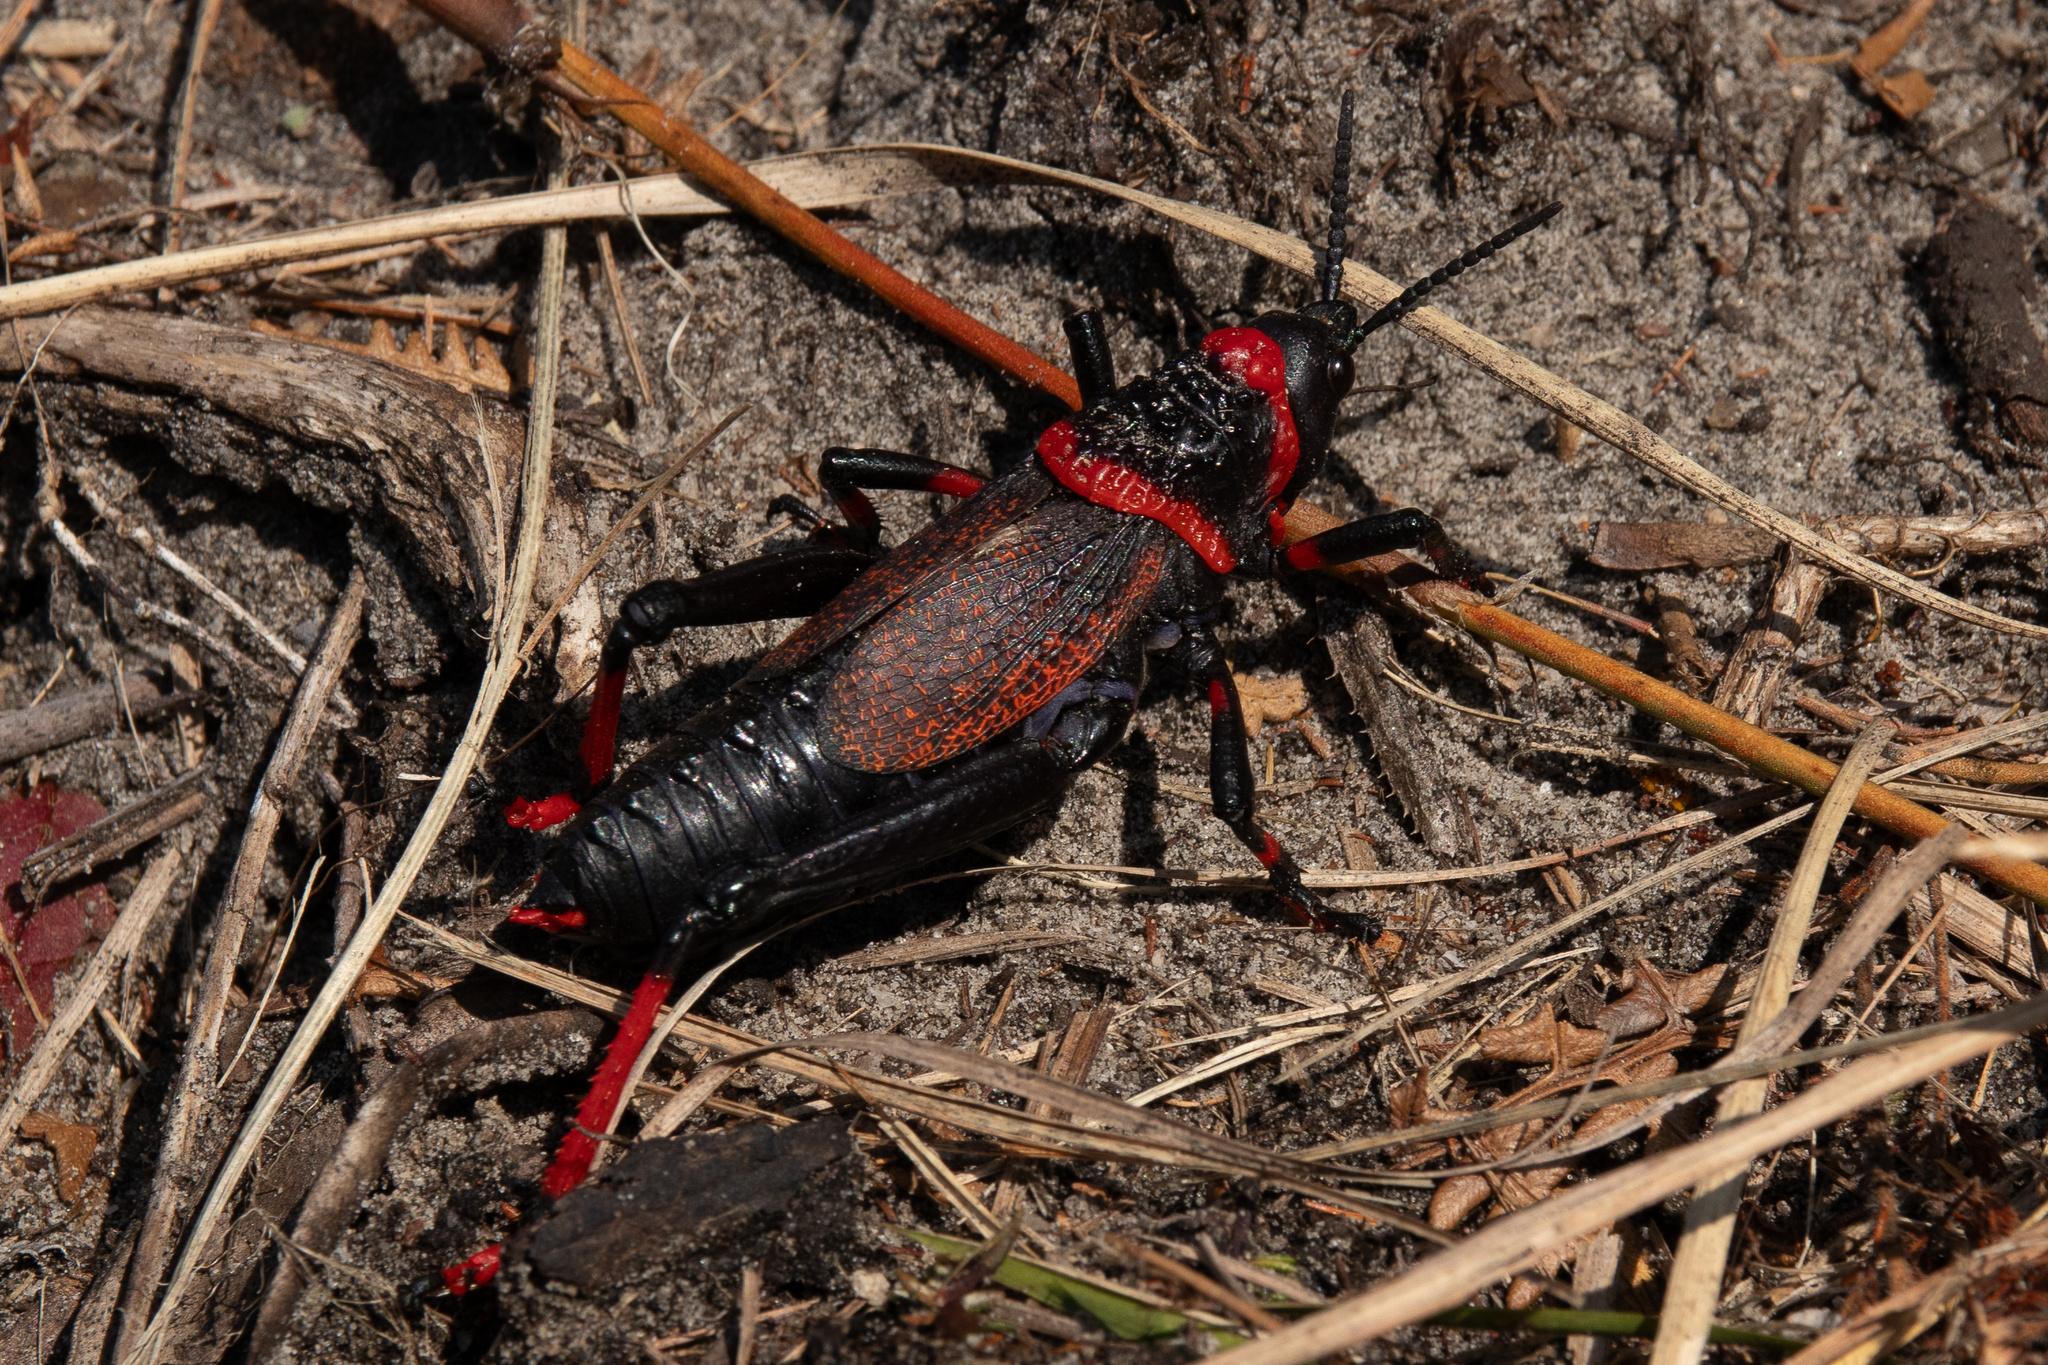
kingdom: Animalia
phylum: Arthropoda
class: Insecta
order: Orthoptera
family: Pyrgomorphidae
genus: Dictyophorus
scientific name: Dictyophorus spumans
